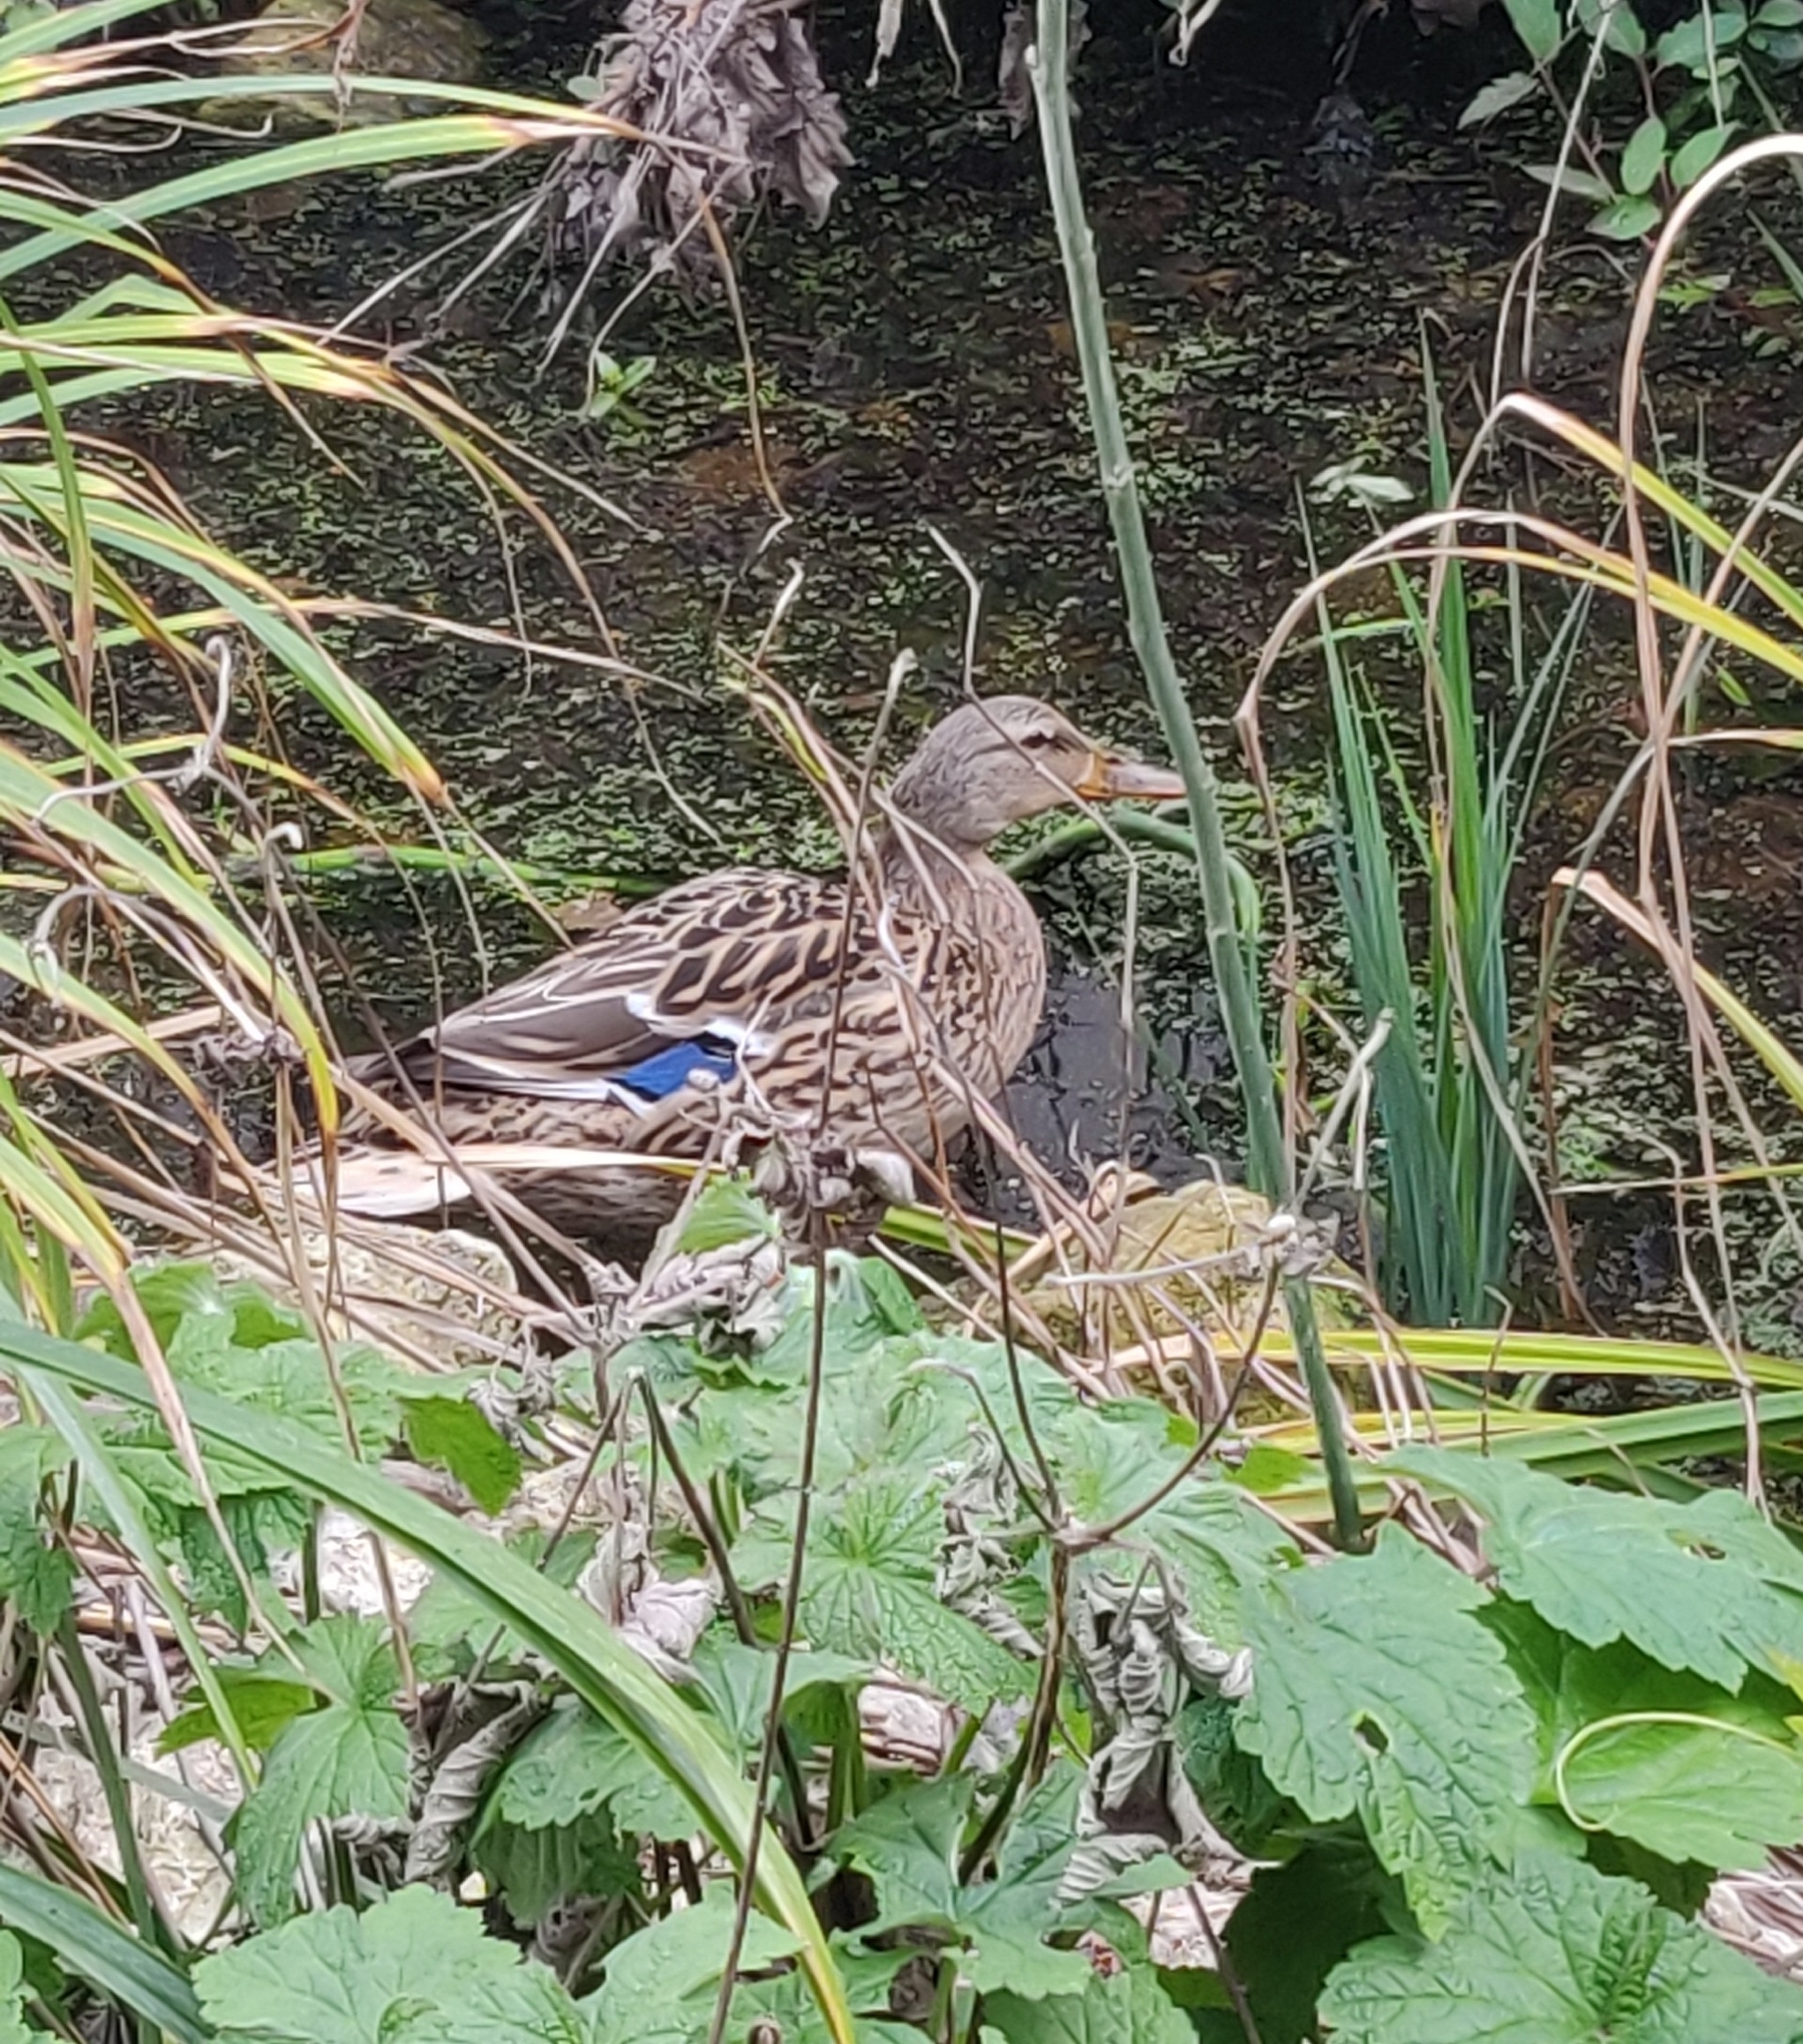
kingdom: Animalia
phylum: Chordata
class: Aves
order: Anseriformes
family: Anatidae
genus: Anas
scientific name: Anas platyrhynchos
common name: Mallard
